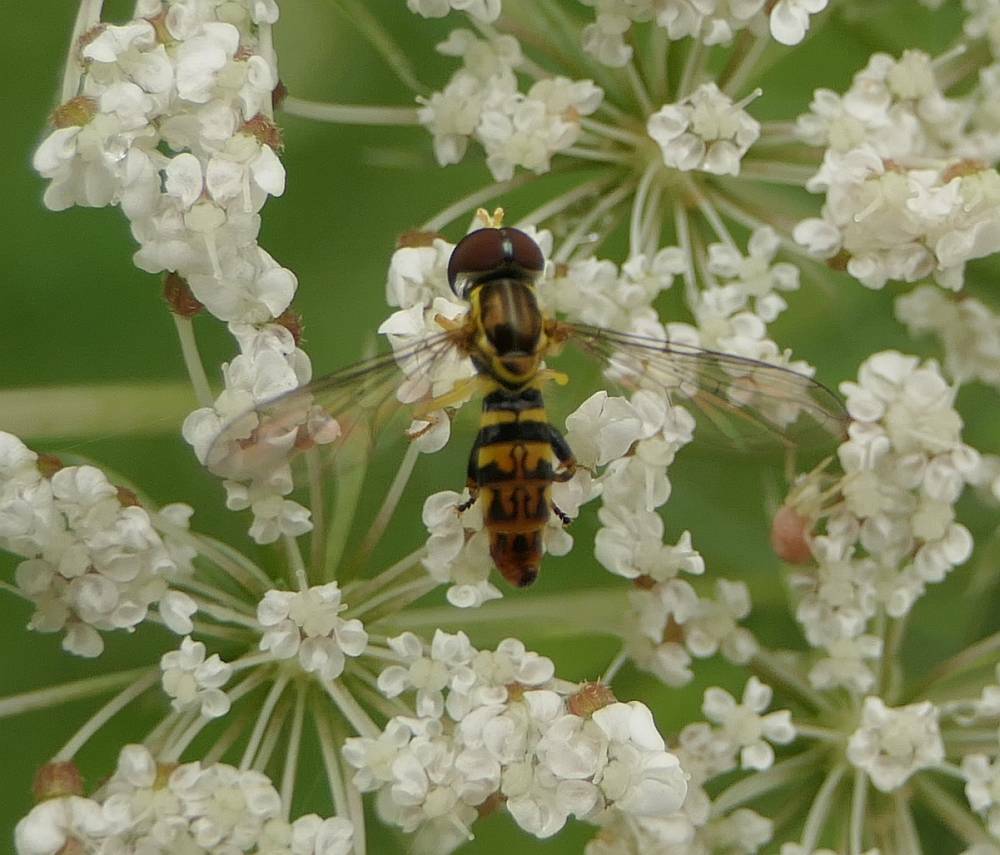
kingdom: Animalia
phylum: Arthropoda
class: Insecta
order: Diptera
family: Syrphidae
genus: Toxomerus
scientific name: Toxomerus geminatus
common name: Eastern calligrapher
